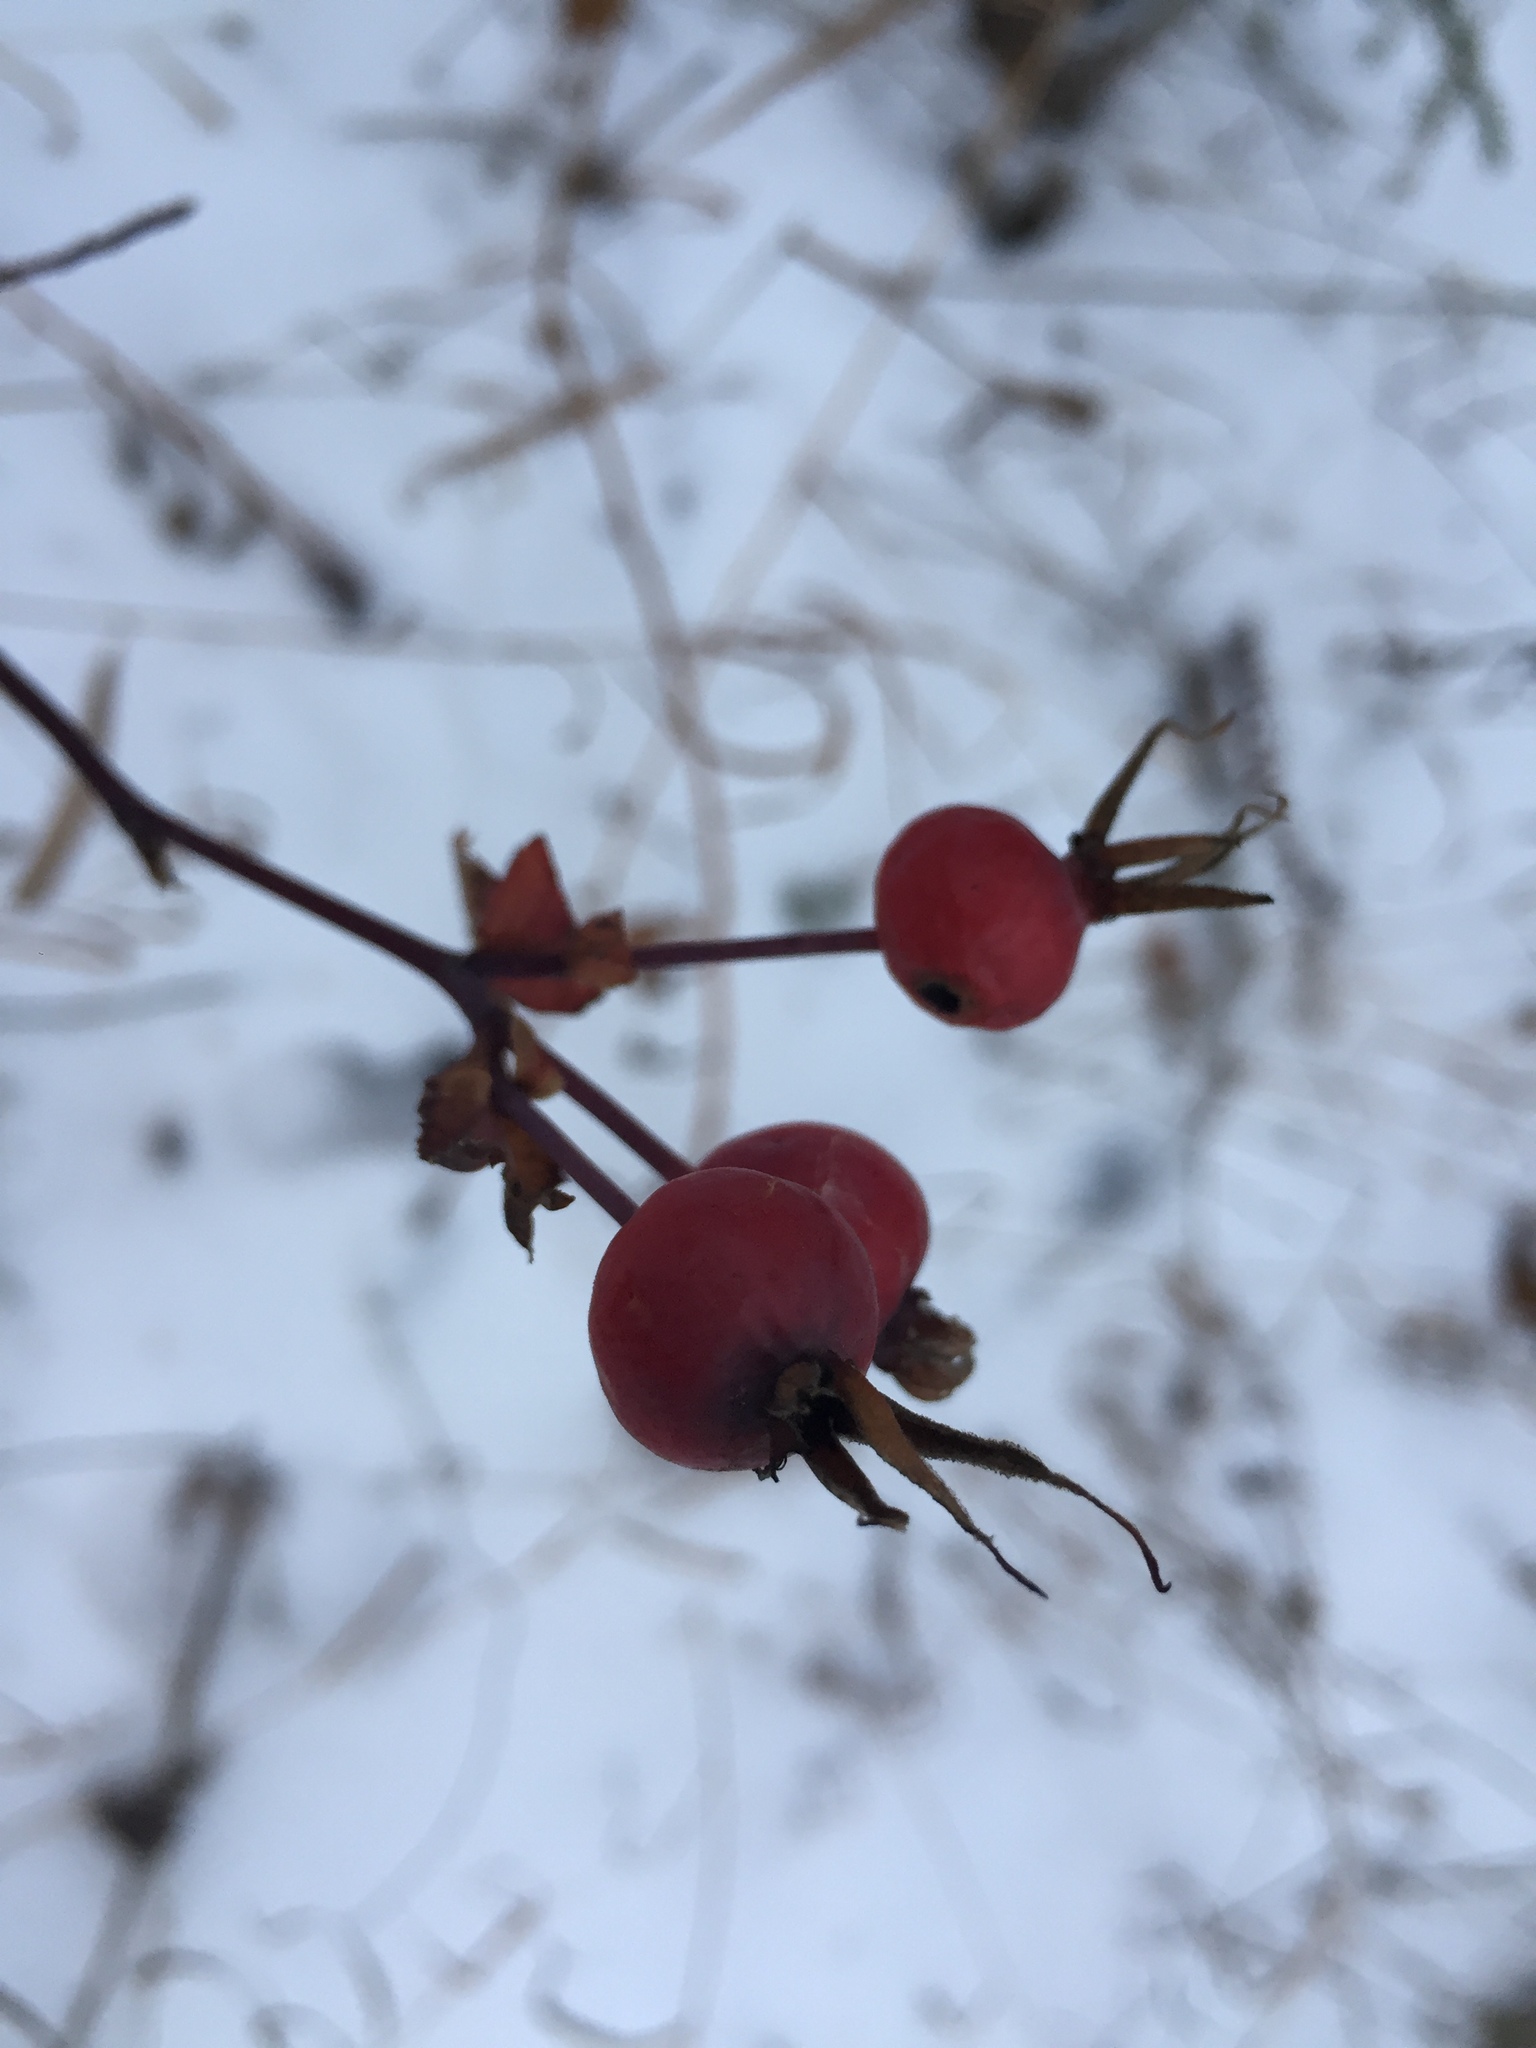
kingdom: Plantae
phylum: Tracheophyta
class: Magnoliopsida
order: Rosales
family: Rosaceae
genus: Rosa
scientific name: Rosa woodsii
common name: Woods's rose
